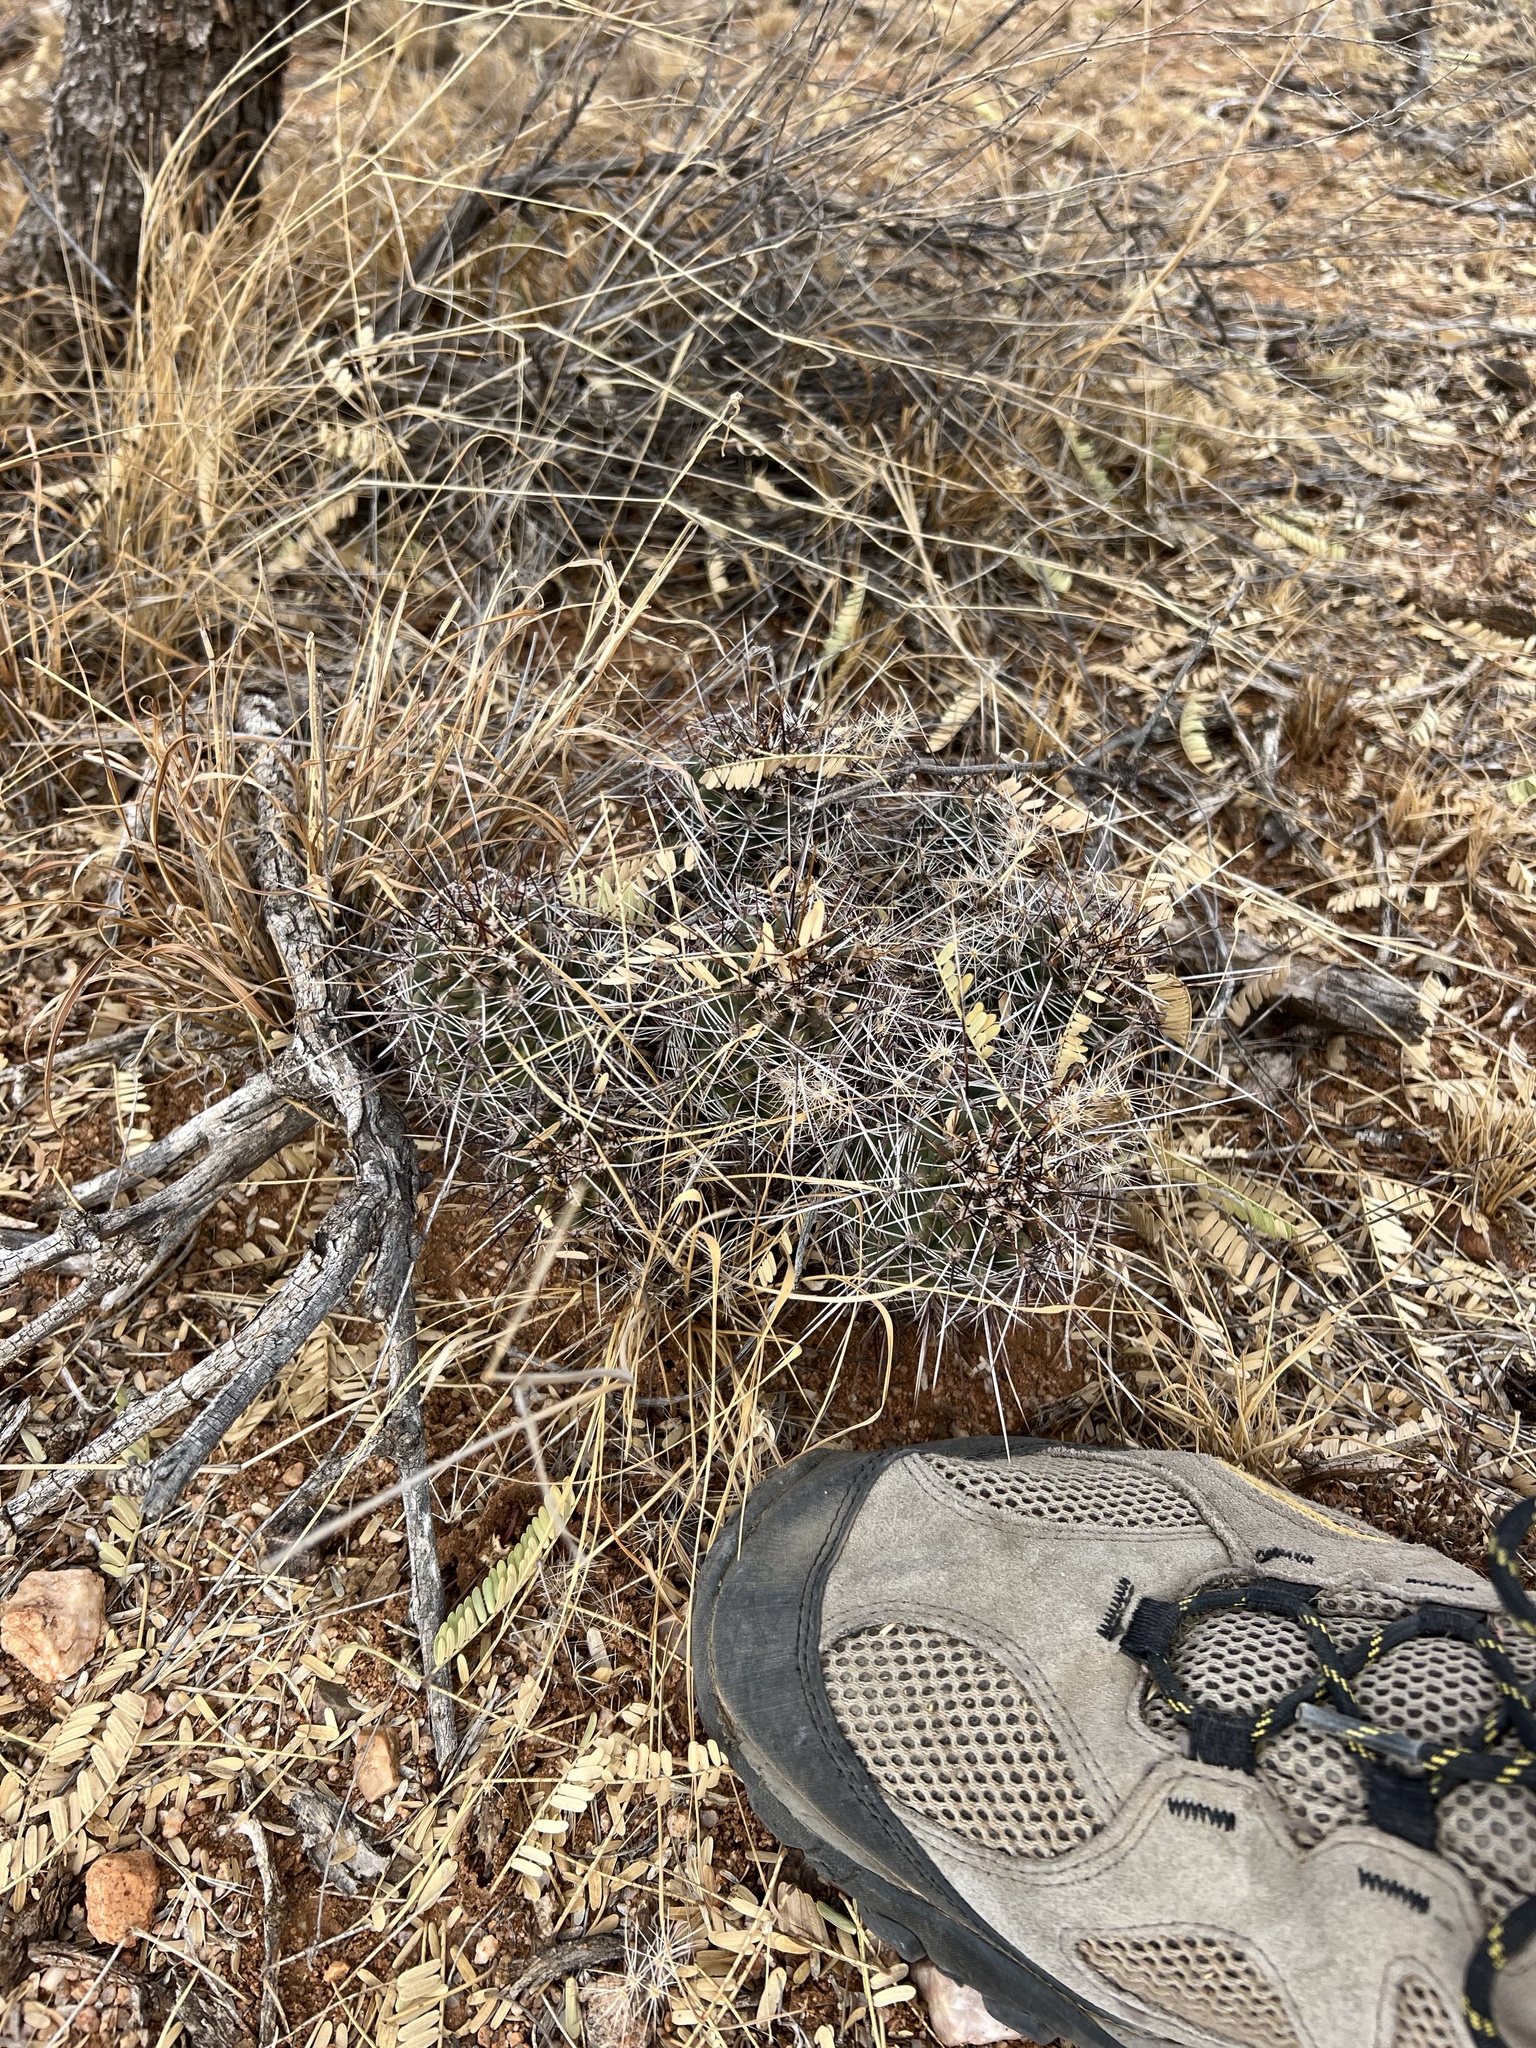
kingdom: Plantae
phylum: Tracheophyta
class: Magnoliopsida
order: Caryophyllales
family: Cactaceae
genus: Echinocereus
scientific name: Echinocereus fasciculatus
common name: Bundle hedgehog
